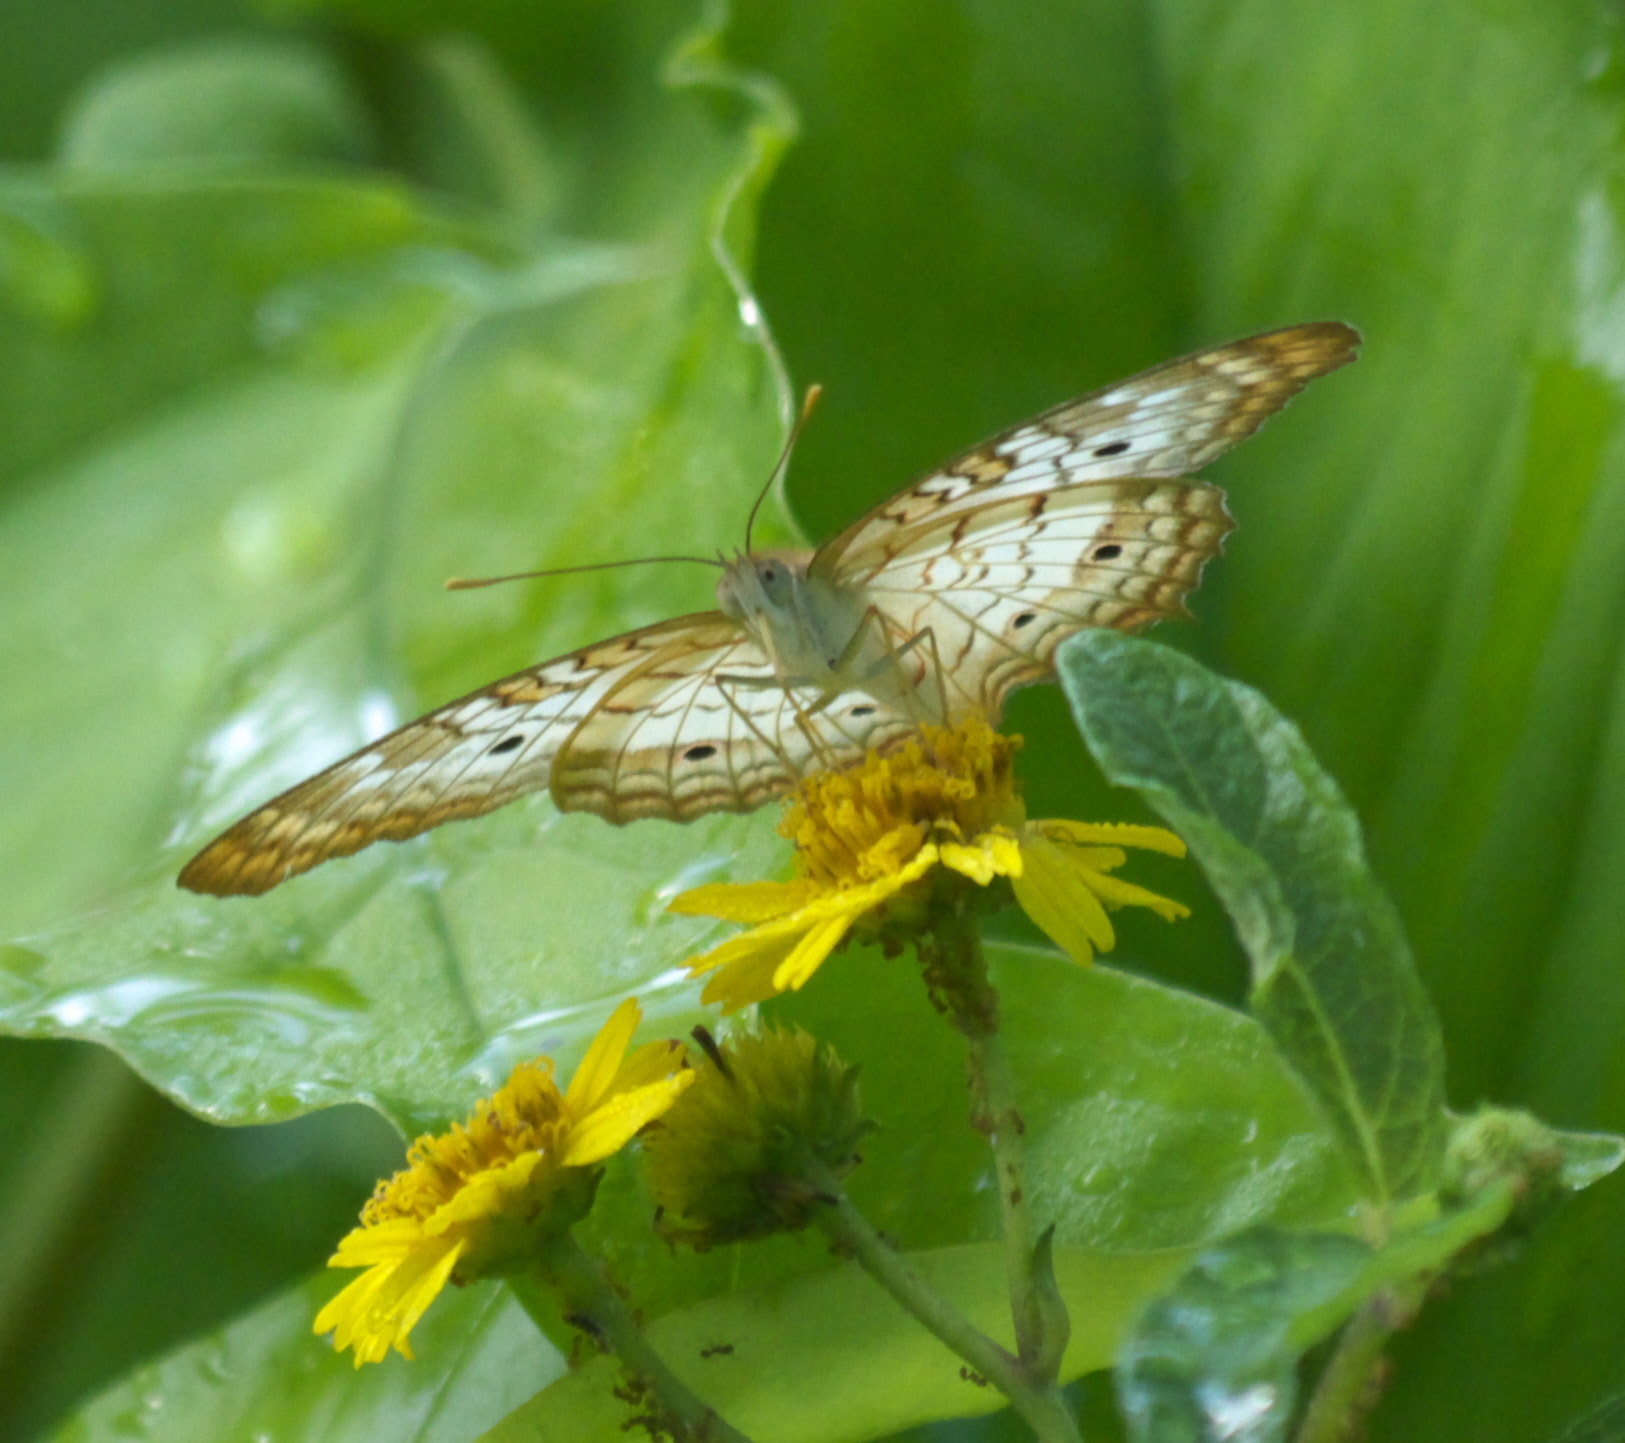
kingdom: Animalia
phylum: Arthropoda
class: Insecta
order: Lepidoptera
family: Nymphalidae
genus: Anartia
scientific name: Anartia jatrophae
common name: White peacock
